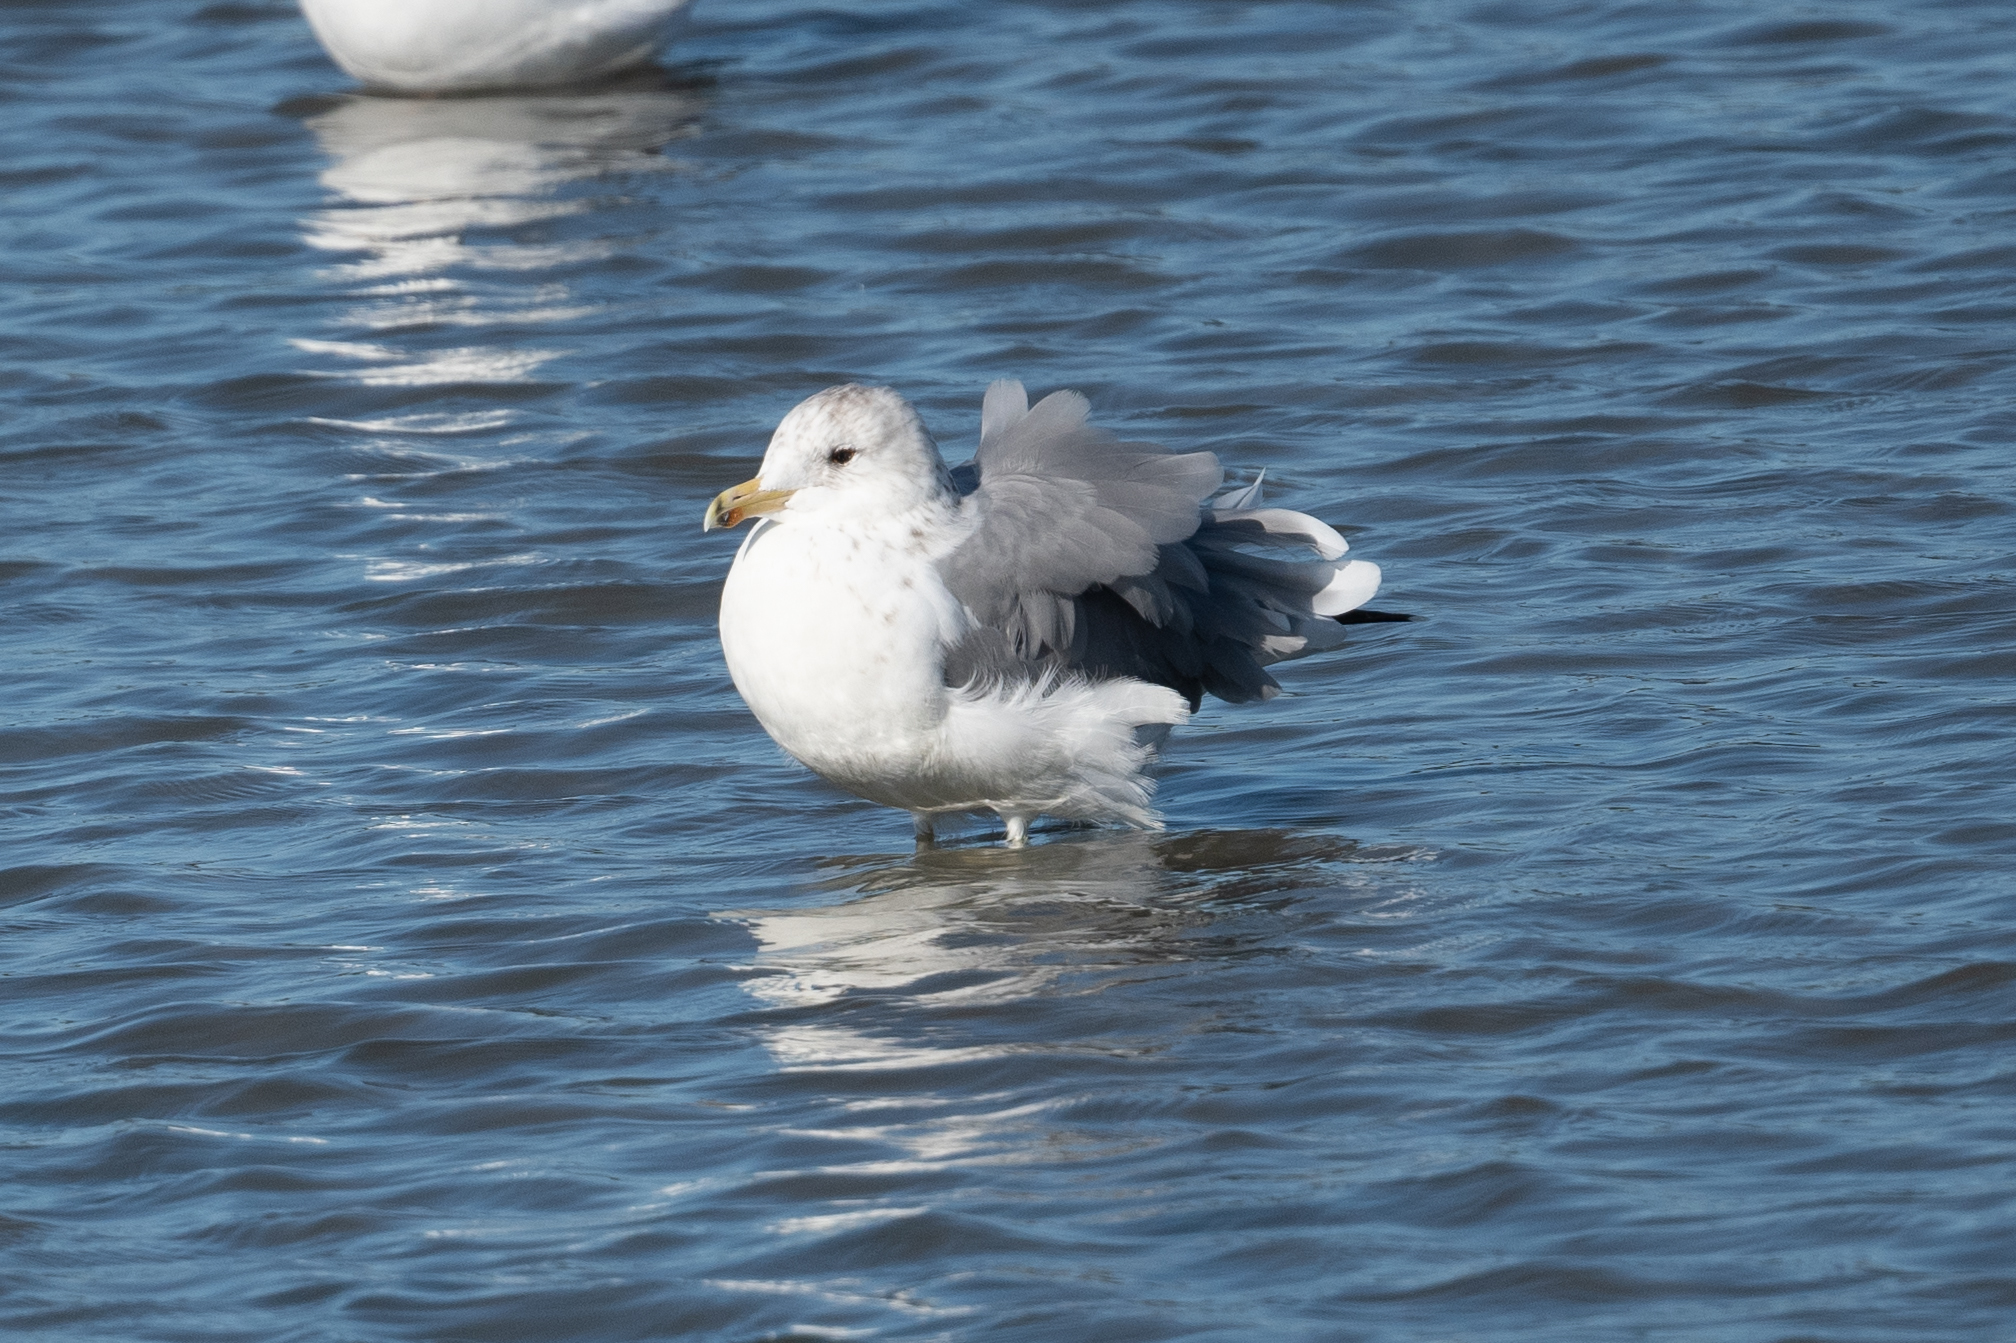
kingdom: Animalia
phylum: Chordata
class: Aves
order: Charadriiformes
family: Laridae
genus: Larus
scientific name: Larus californicus
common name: California gull
